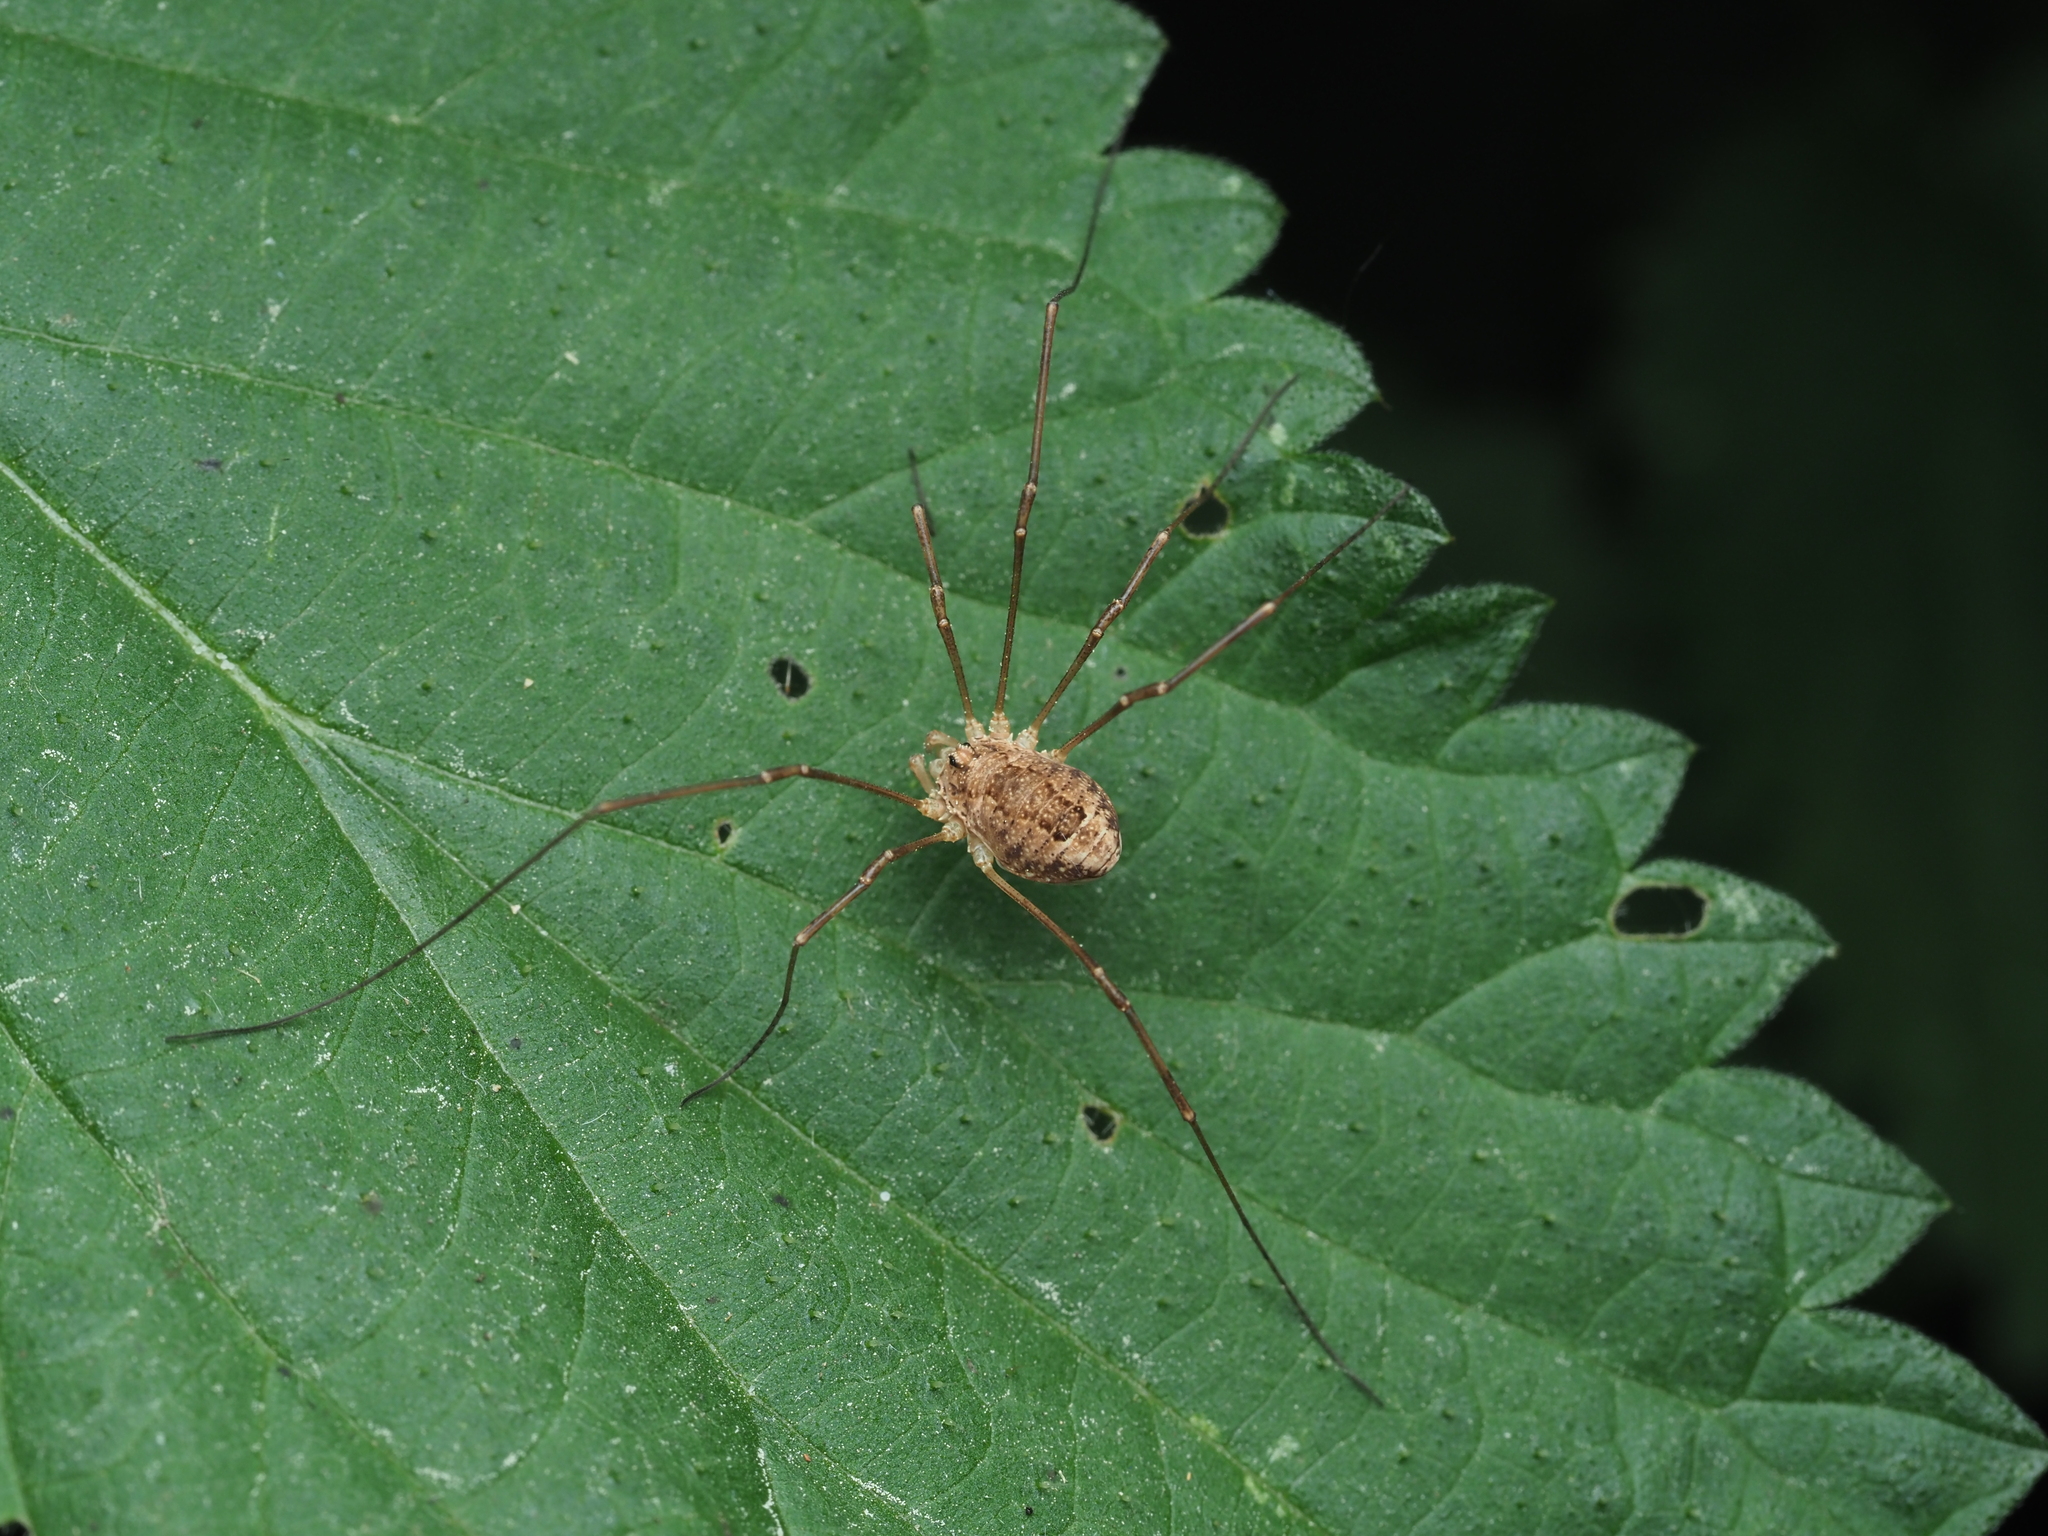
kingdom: Animalia
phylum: Arthropoda
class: Arachnida
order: Opiliones
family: Phalangiidae
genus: Rilaena
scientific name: Rilaena triangularis
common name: Spring harvestman
